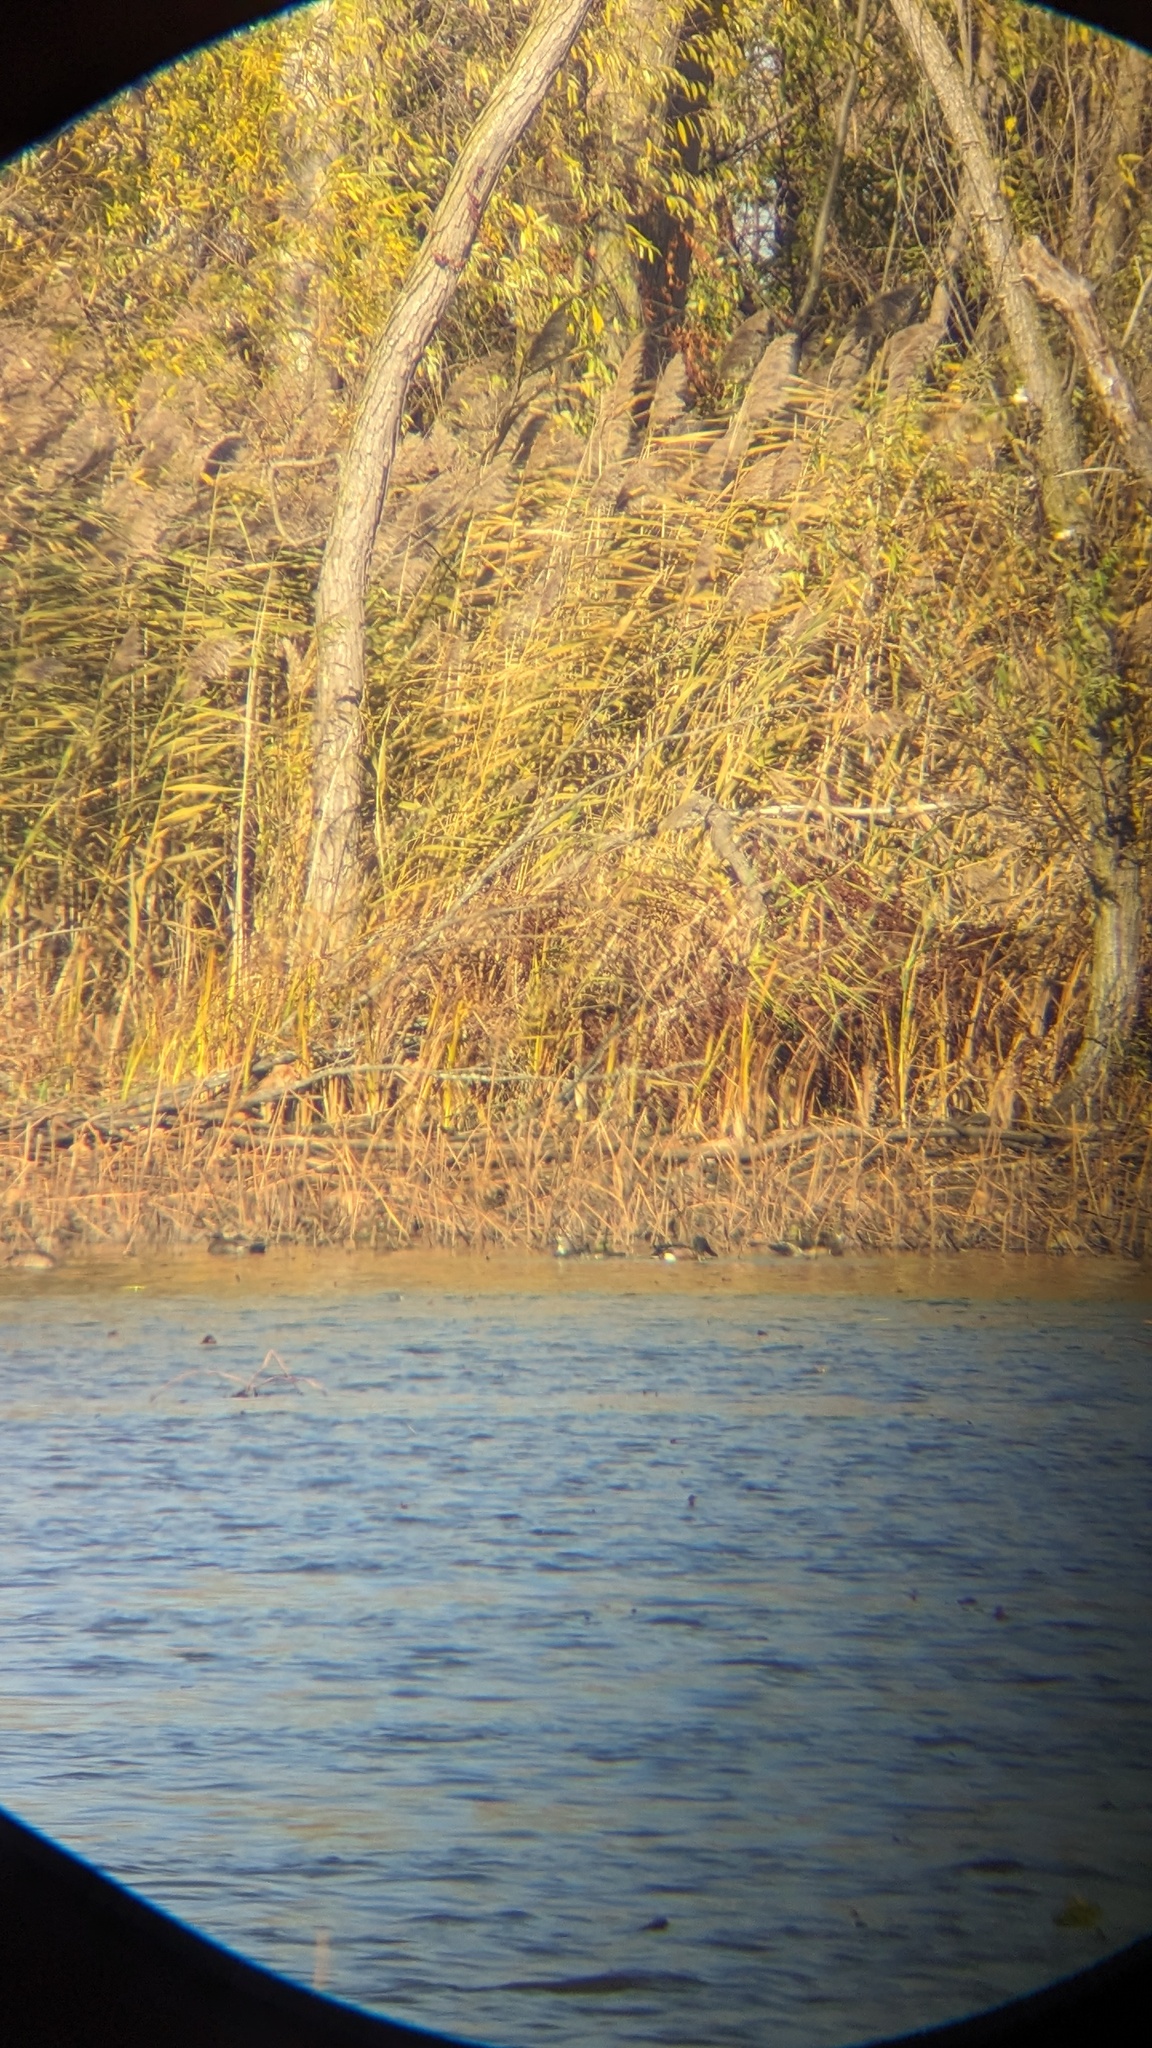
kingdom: Animalia
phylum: Chordata
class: Aves
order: Anseriformes
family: Anatidae
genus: Spatula
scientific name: Spatula clypeata
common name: Northern shoveler
